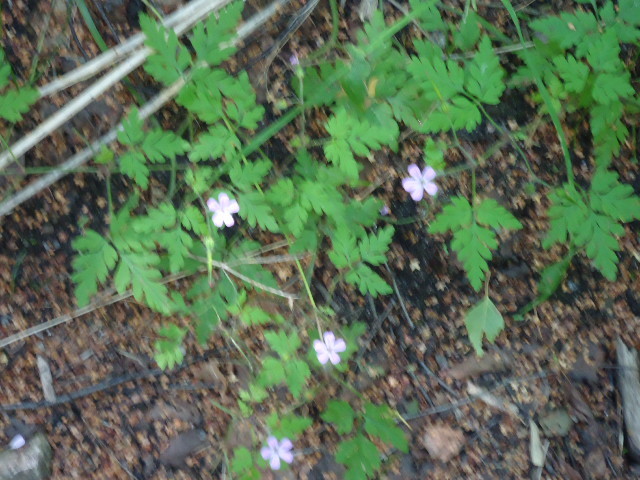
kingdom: Plantae
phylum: Tracheophyta
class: Magnoliopsida
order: Geraniales
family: Geraniaceae
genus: Geranium
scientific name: Geranium robertianum
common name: Herb-robert
